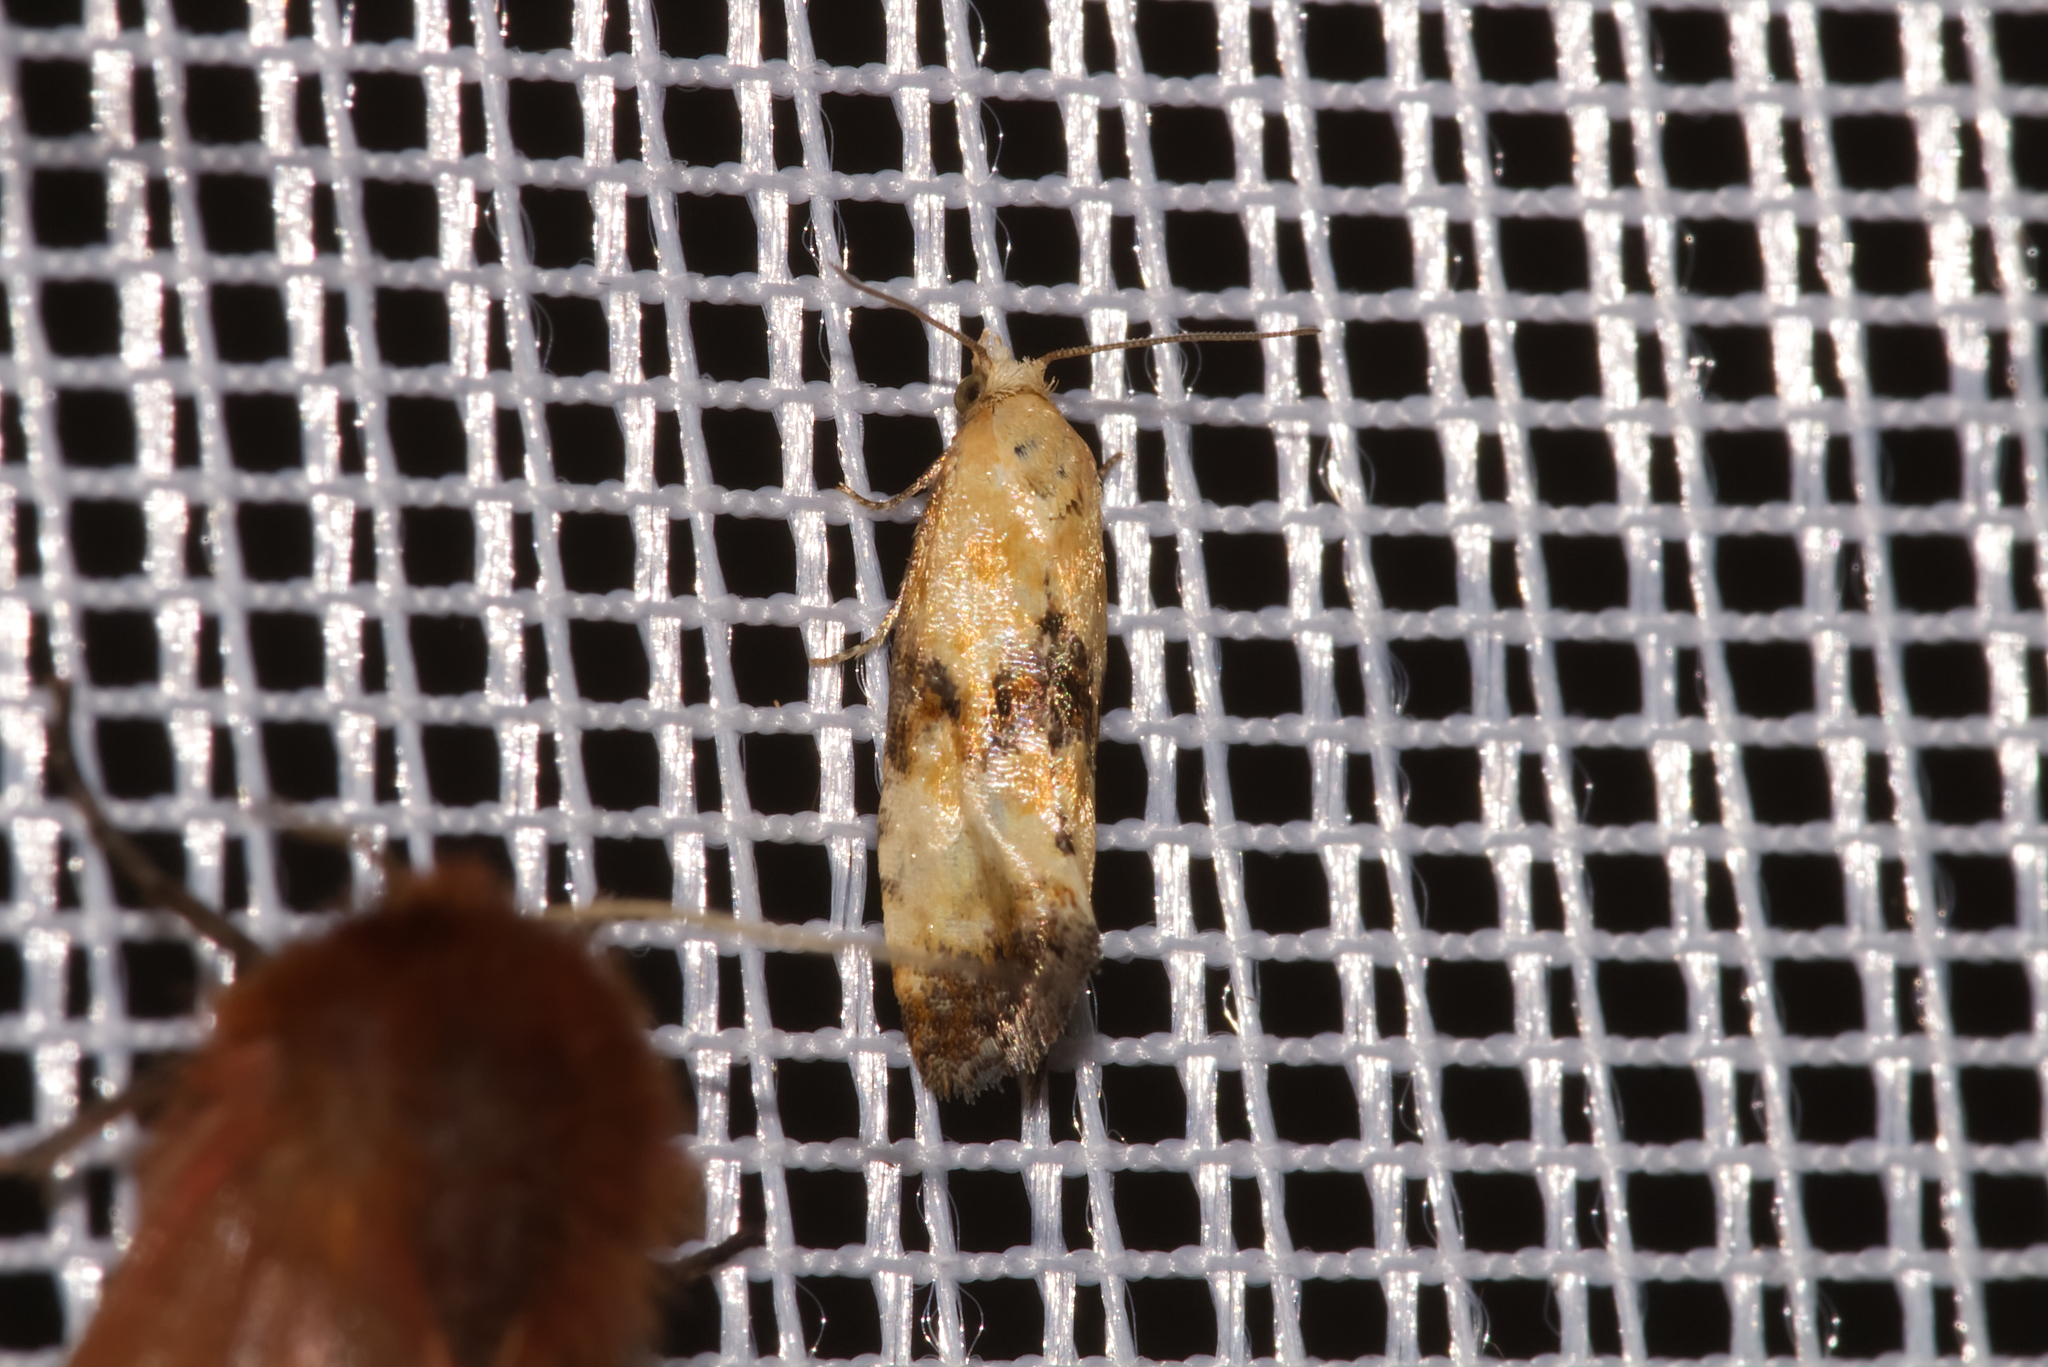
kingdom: Animalia
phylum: Arthropoda
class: Insecta
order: Lepidoptera
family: Tortricidae
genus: Eupoecilia
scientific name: Eupoecilia angustana
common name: Marbled conch
